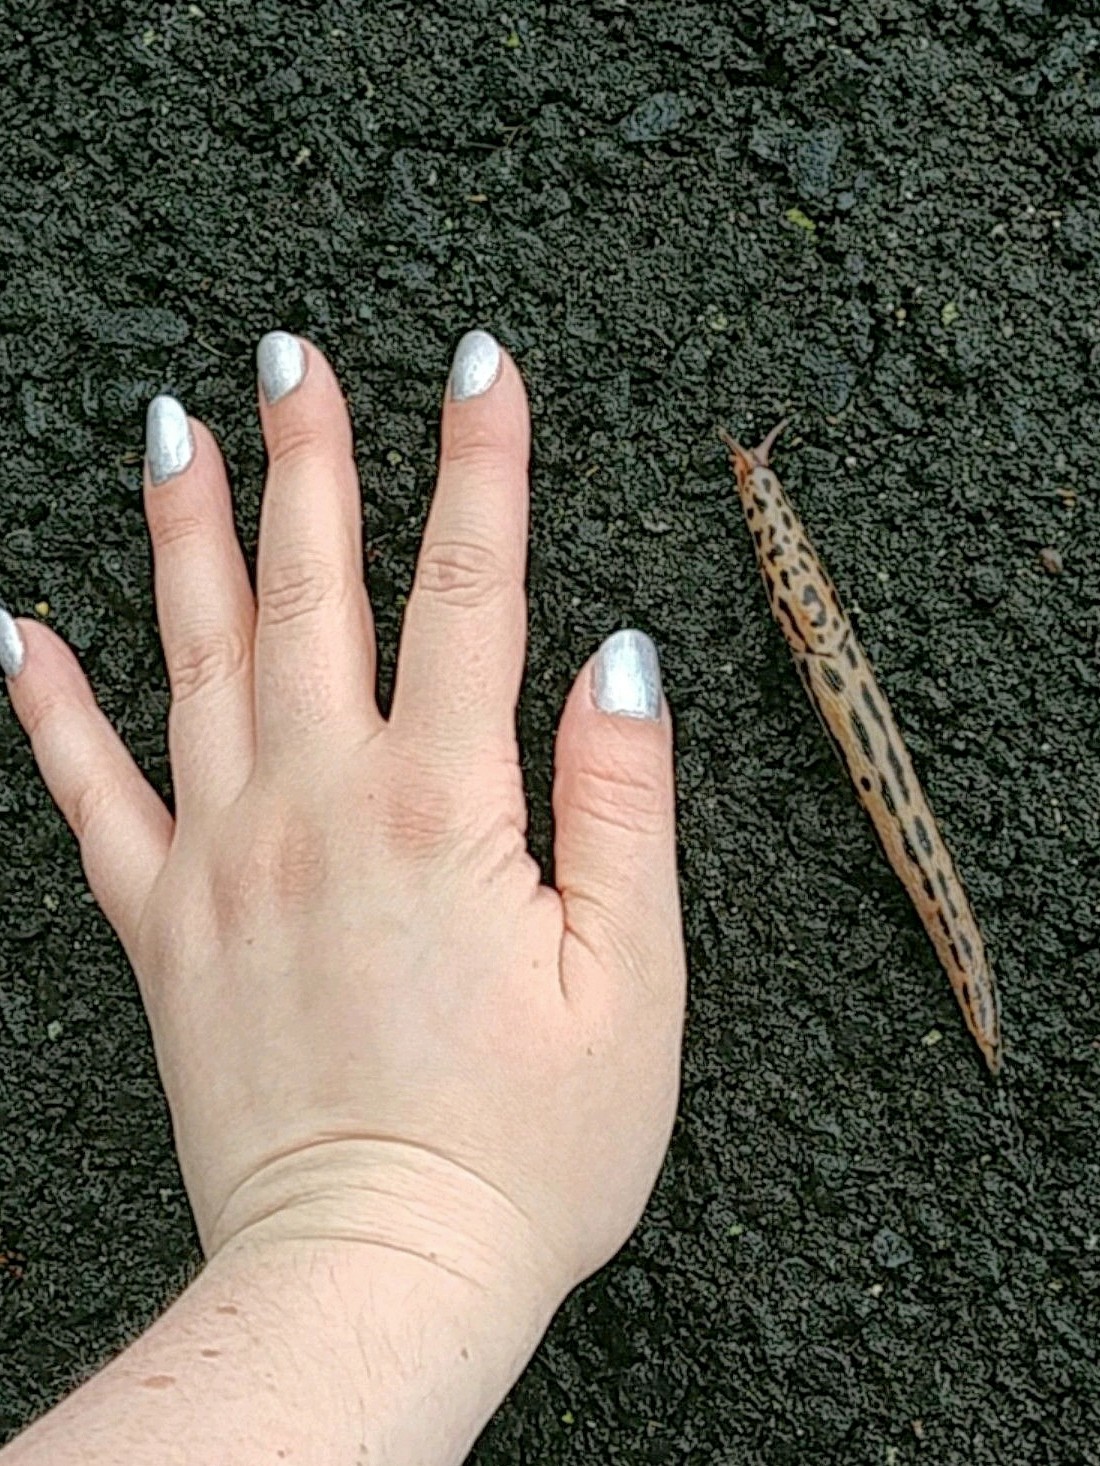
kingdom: Animalia
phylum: Mollusca
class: Gastropoda
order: Stylommatophora
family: Limacidae
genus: Limax
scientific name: Limax maximus
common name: Great grey slug
